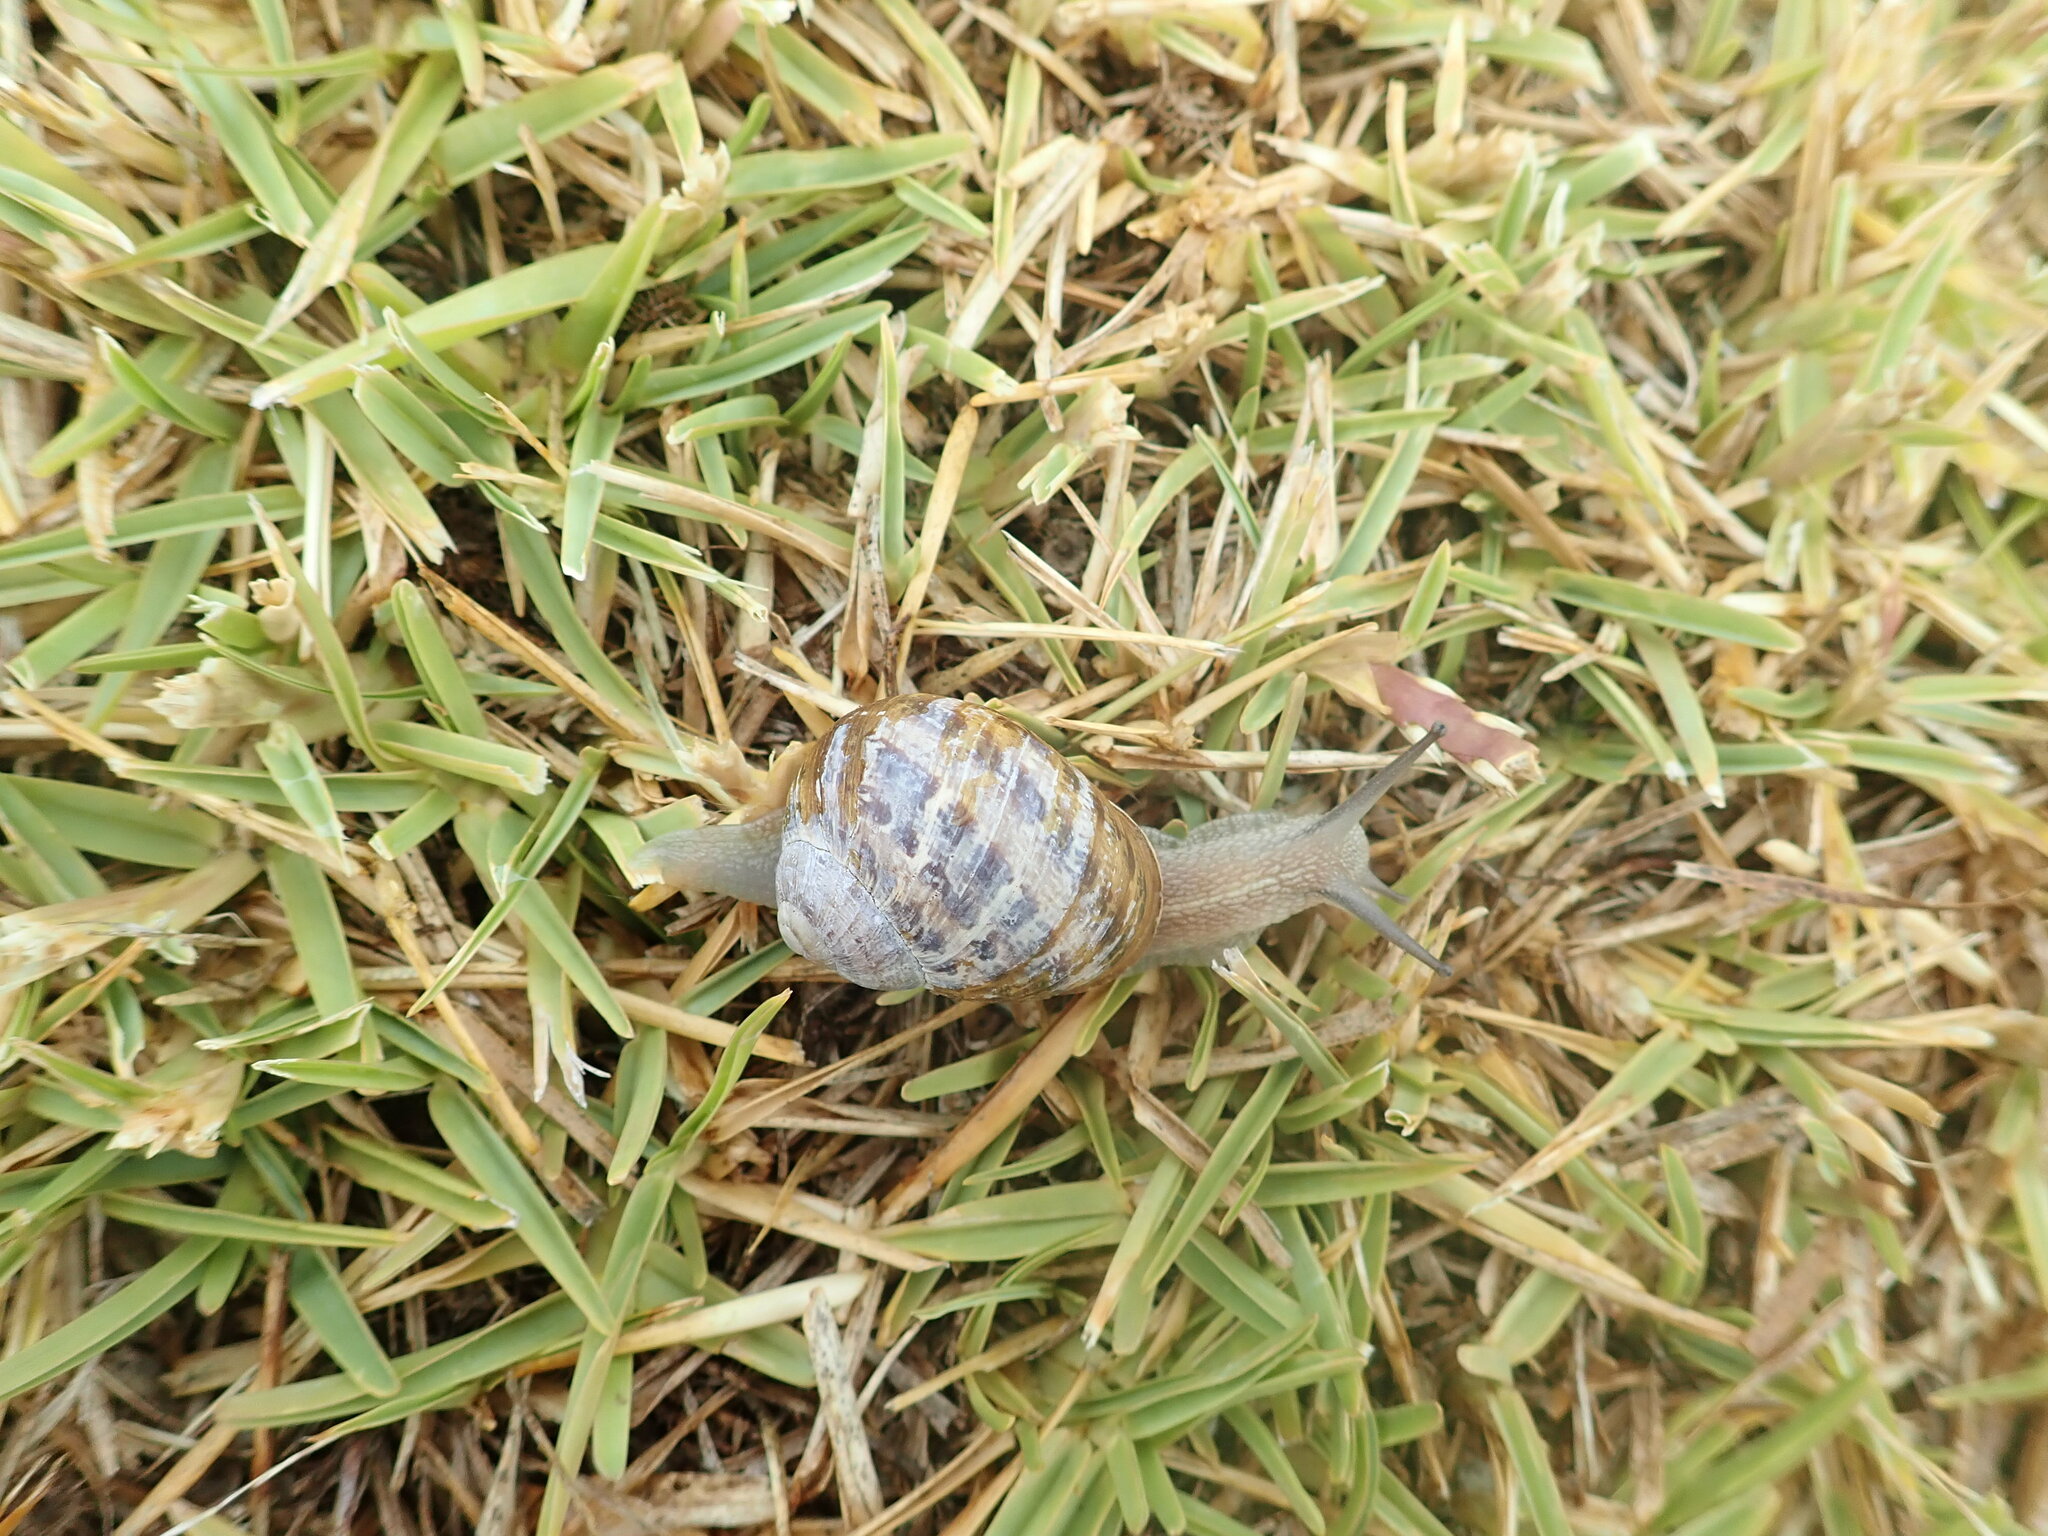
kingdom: Animalia
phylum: Mollusca
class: Gastropoda
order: Stylommatophora
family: Helicidae
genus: Cornu
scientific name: Cornu aspersum
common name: Brown garden snail
